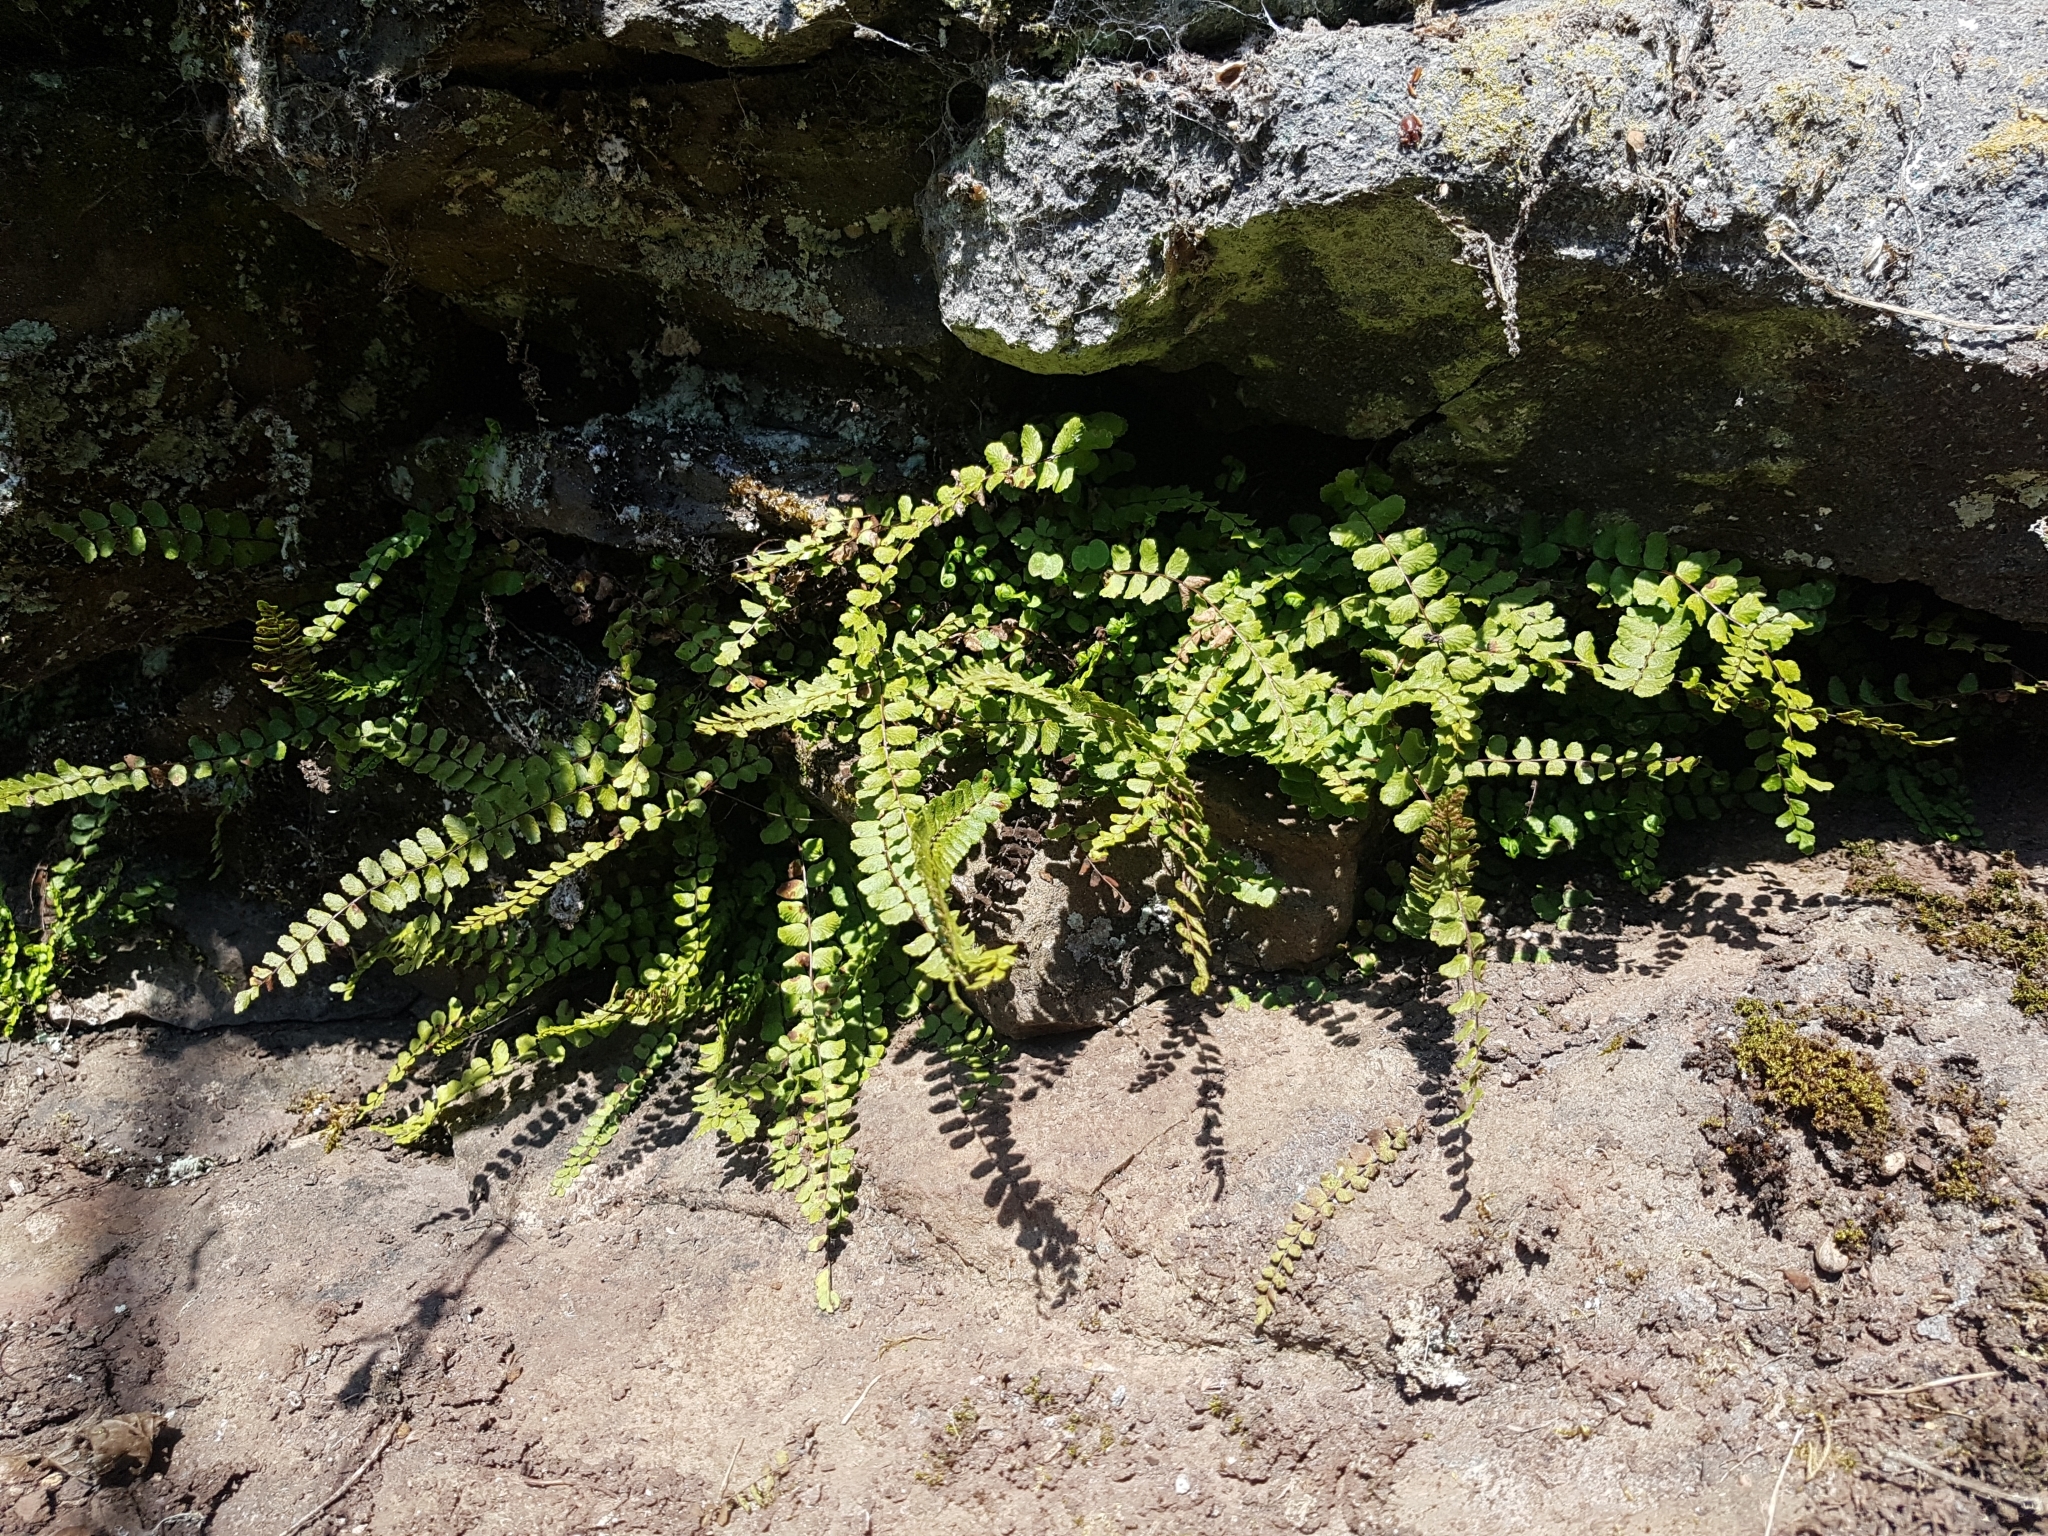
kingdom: Plantae
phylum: Tracheophyta
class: Polypodiopsida
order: Polypodiales
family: Aspleniaceae
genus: Asplenium
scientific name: Asplenium trichomanes
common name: Maidenhair spleenwort
